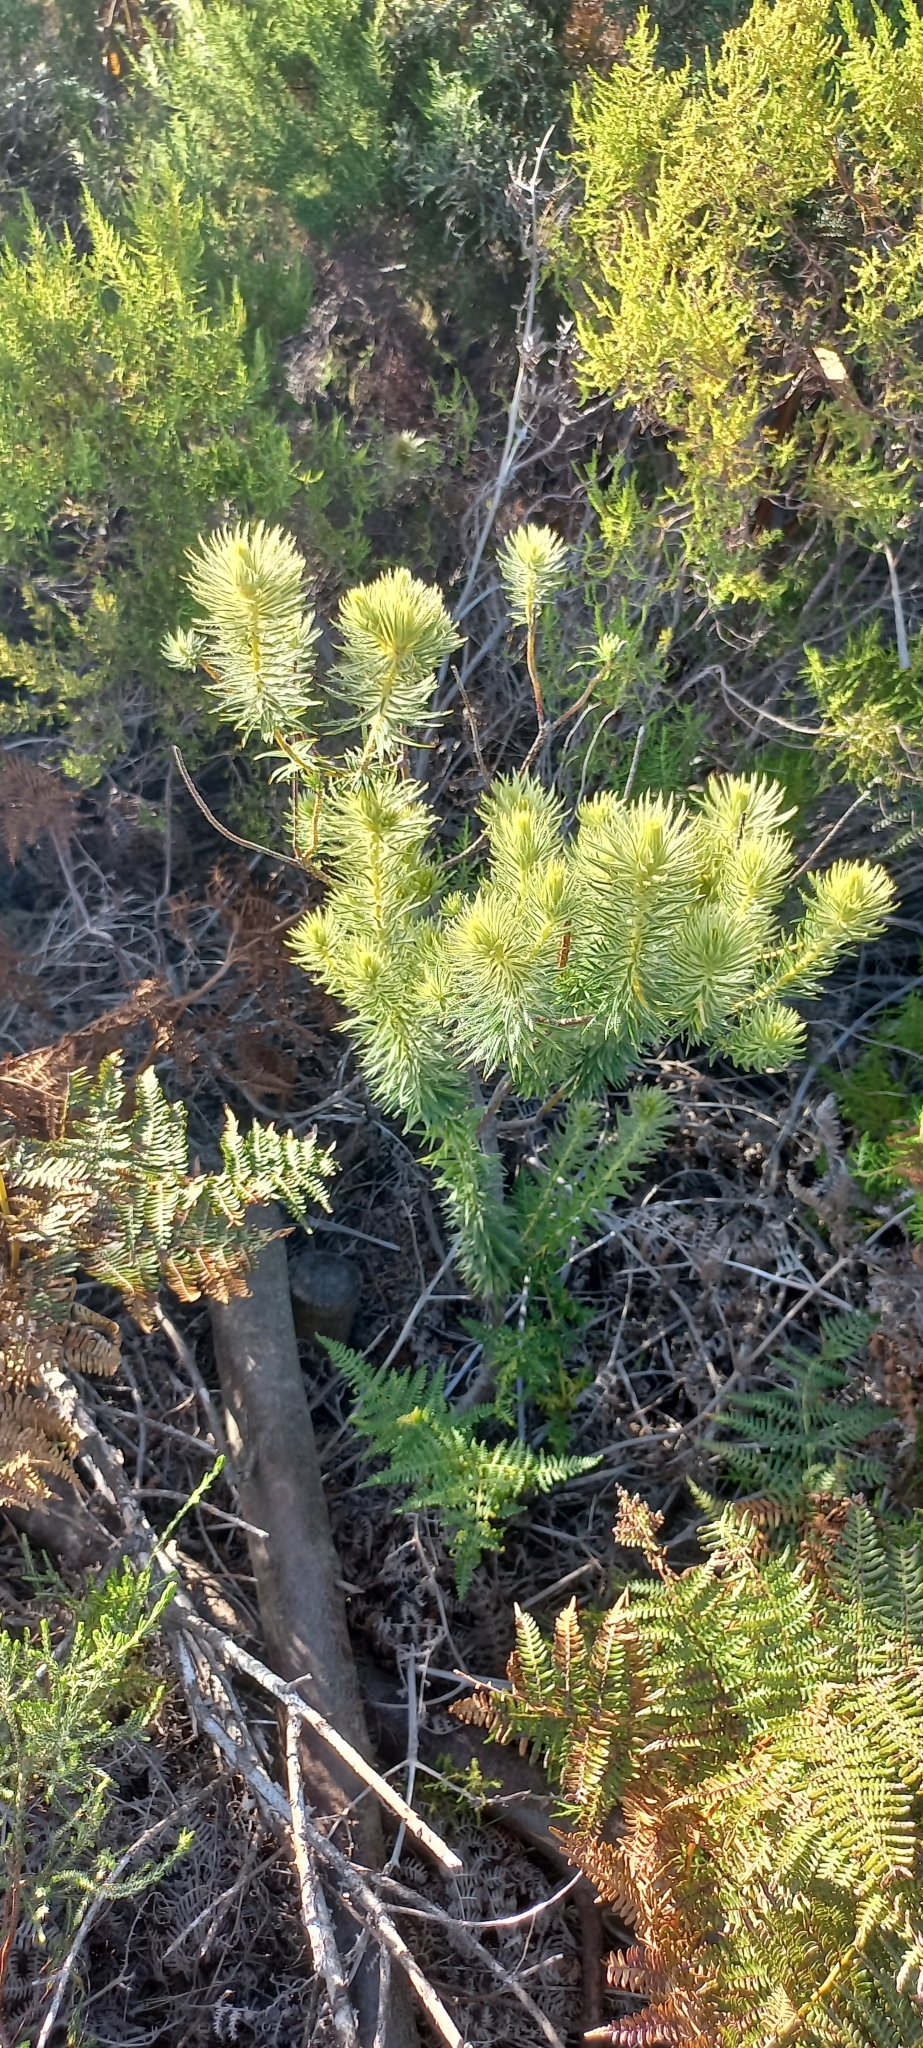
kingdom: Plantae
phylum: Tracheophyta
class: Magnoliopsida
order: Rosales
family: Rhamnaceae
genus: Phylica
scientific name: Phylica pubescens
